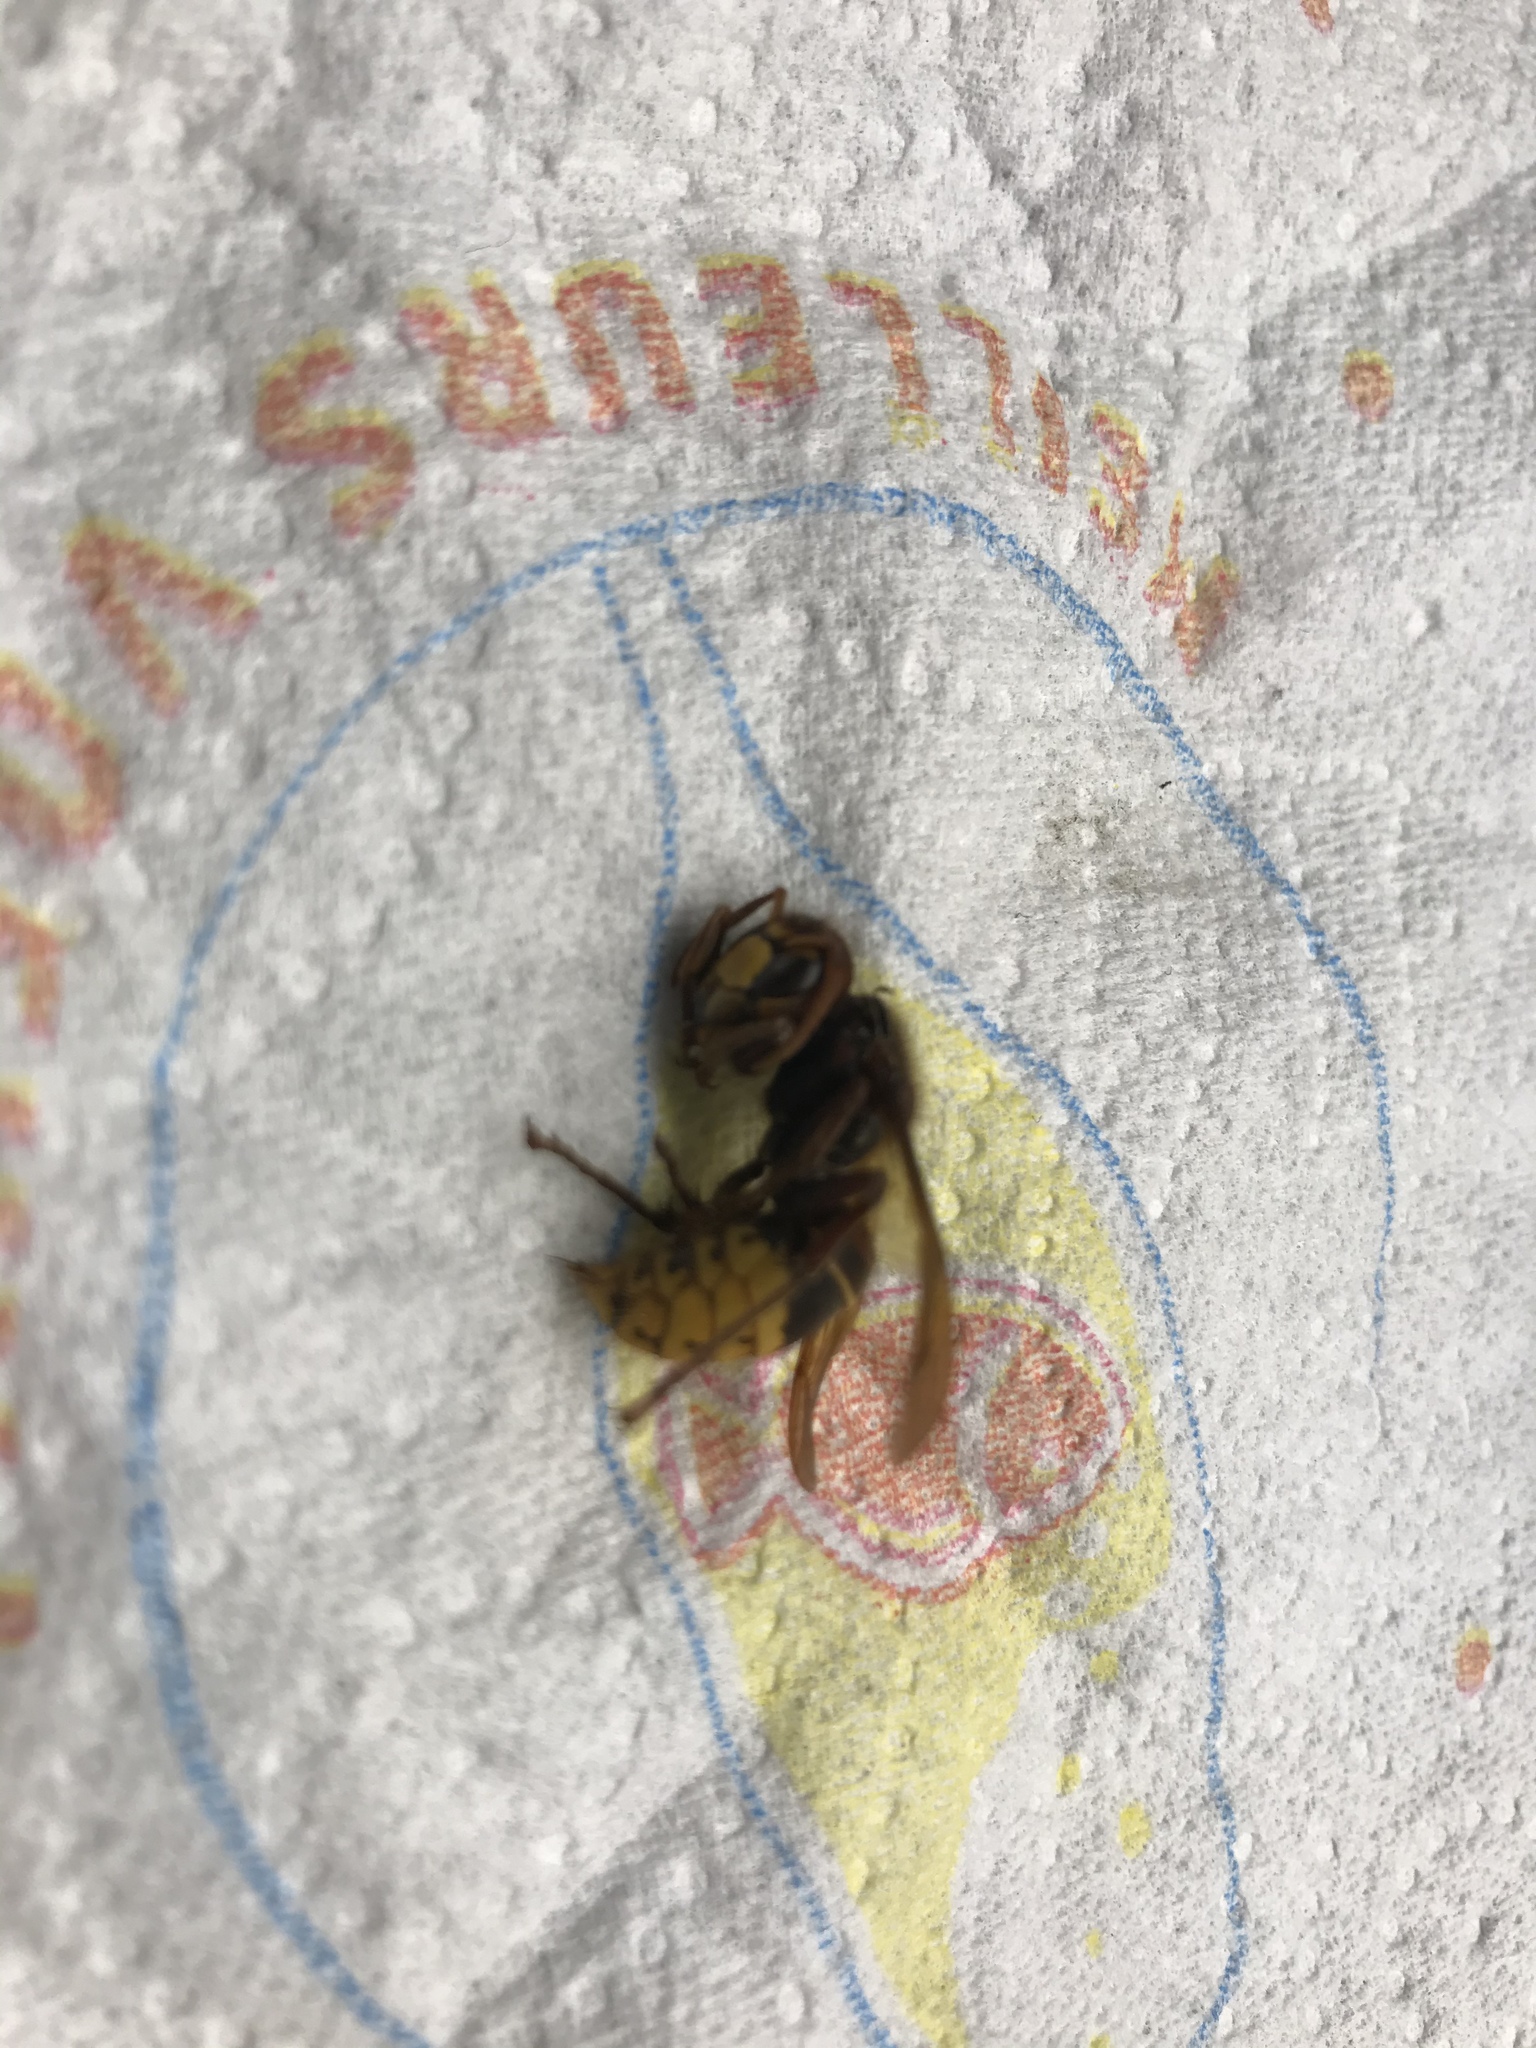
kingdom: Animalia
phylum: Arthropoda
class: Insecta
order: Hymenoptera
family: Vespidae
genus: Vespa
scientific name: Vespa crabro
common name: Hornet
